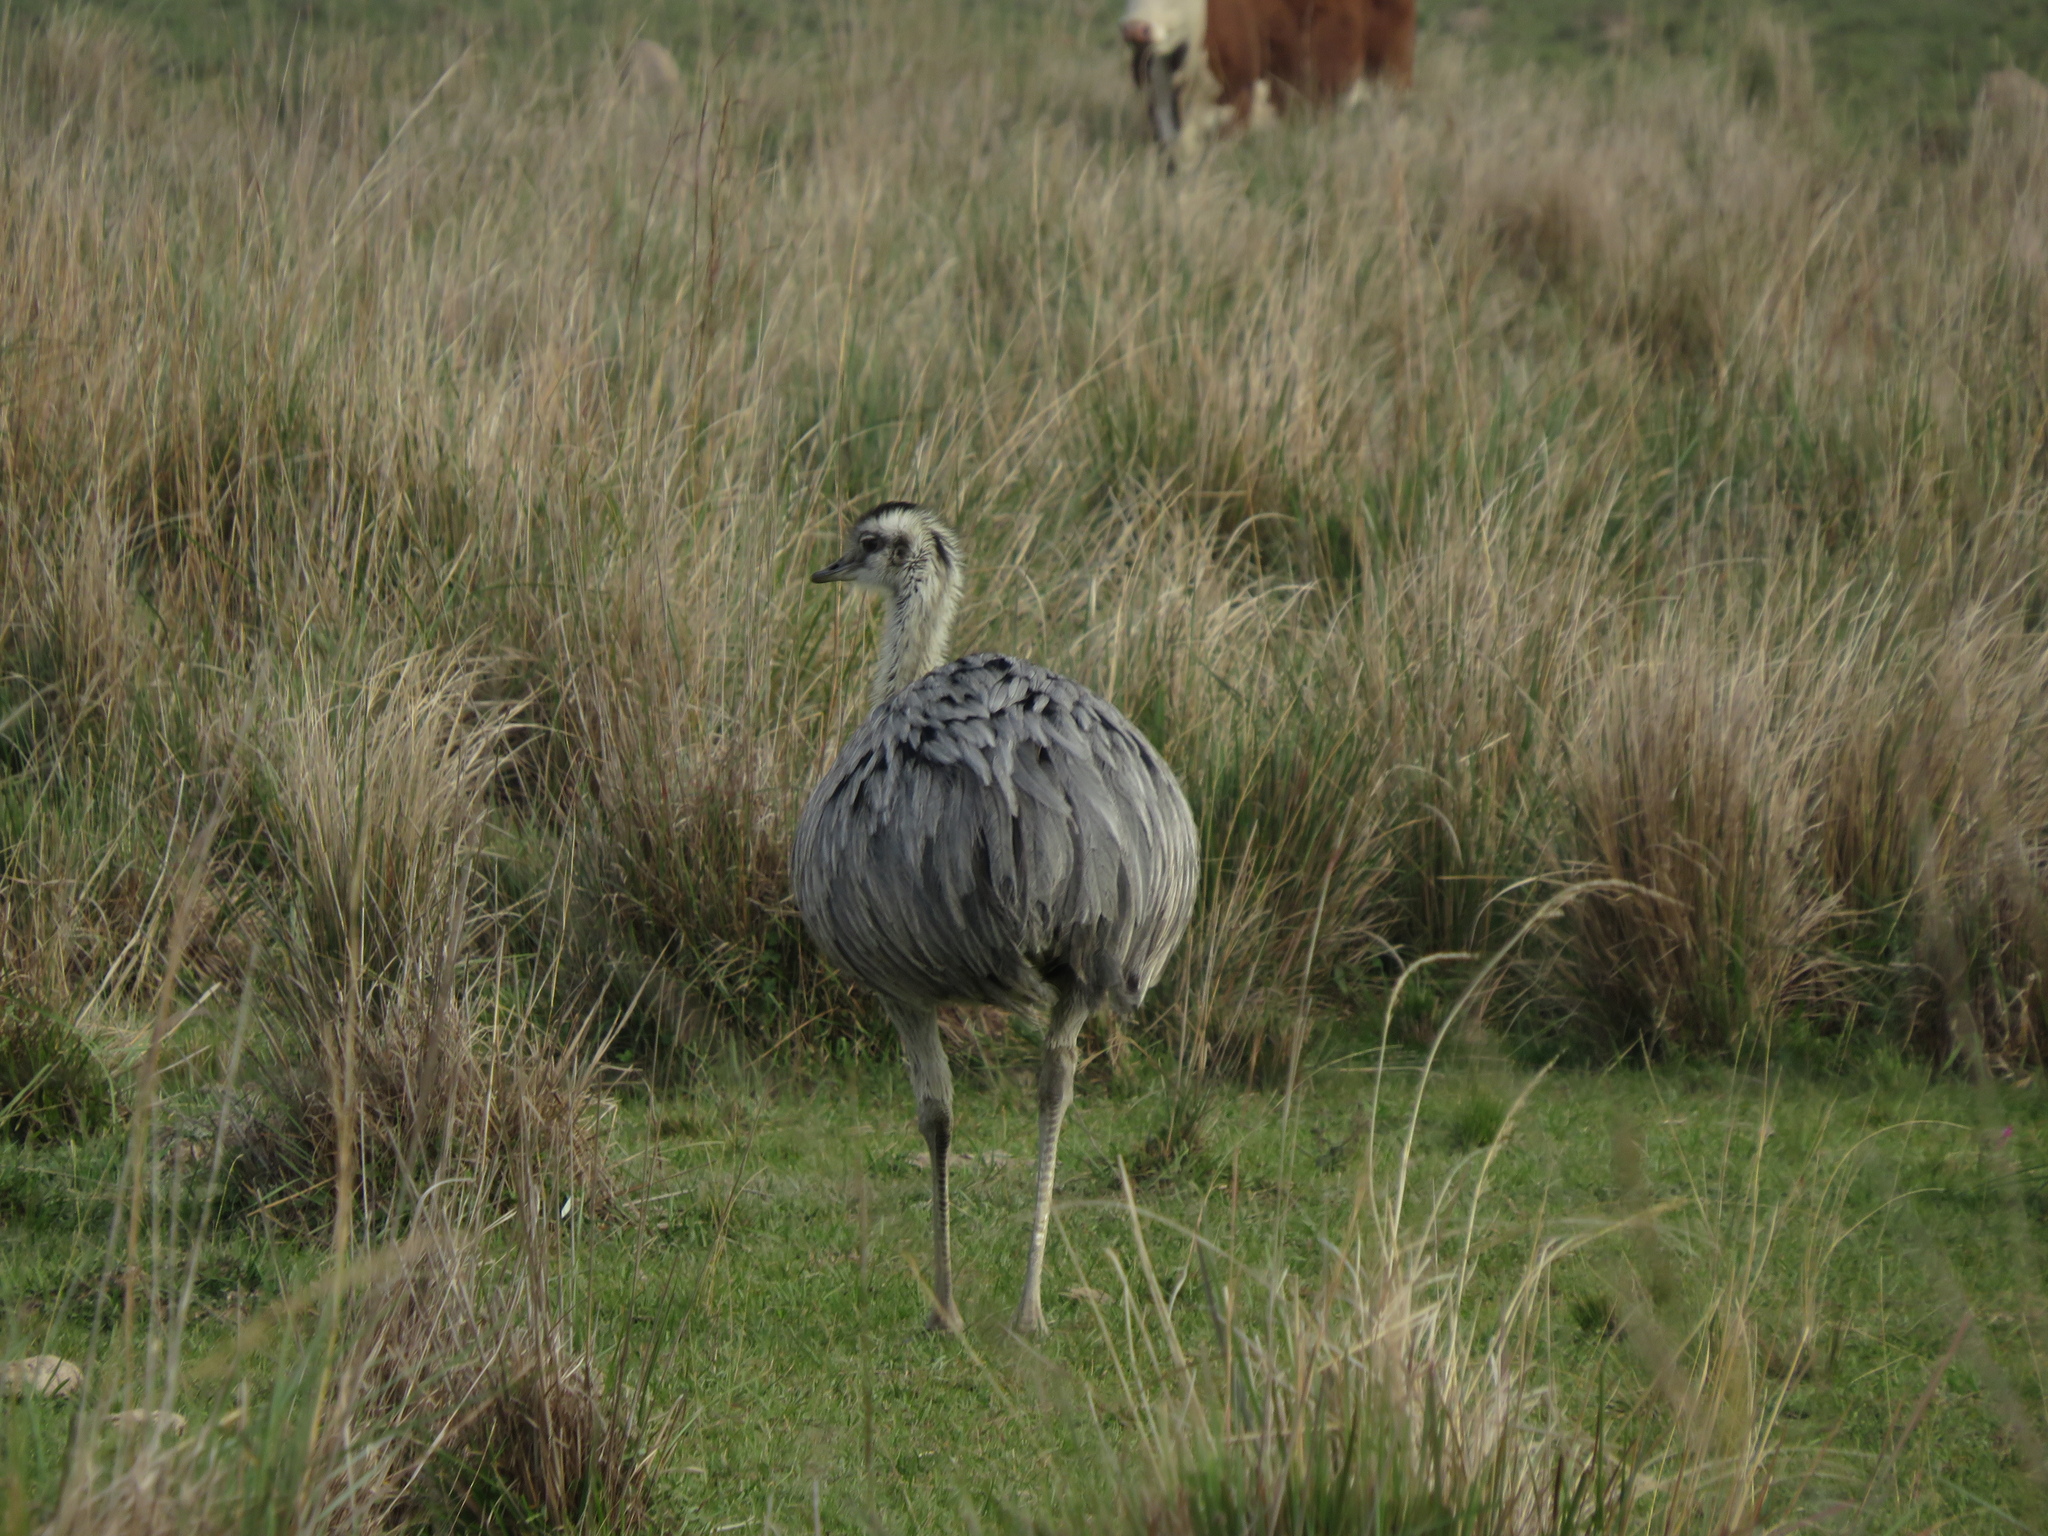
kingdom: Animalia
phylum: Chordata
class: Aves
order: Rheiformes
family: Rheidae
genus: Rhea
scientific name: Rhea americana
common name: Greater rhea
